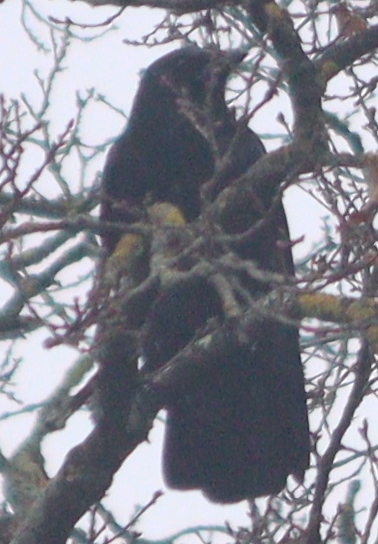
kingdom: Animalia
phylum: Chordata
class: Aves
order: Passeriformes
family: Corvidae
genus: Corvus
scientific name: Corvus corone
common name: Carrion crow
